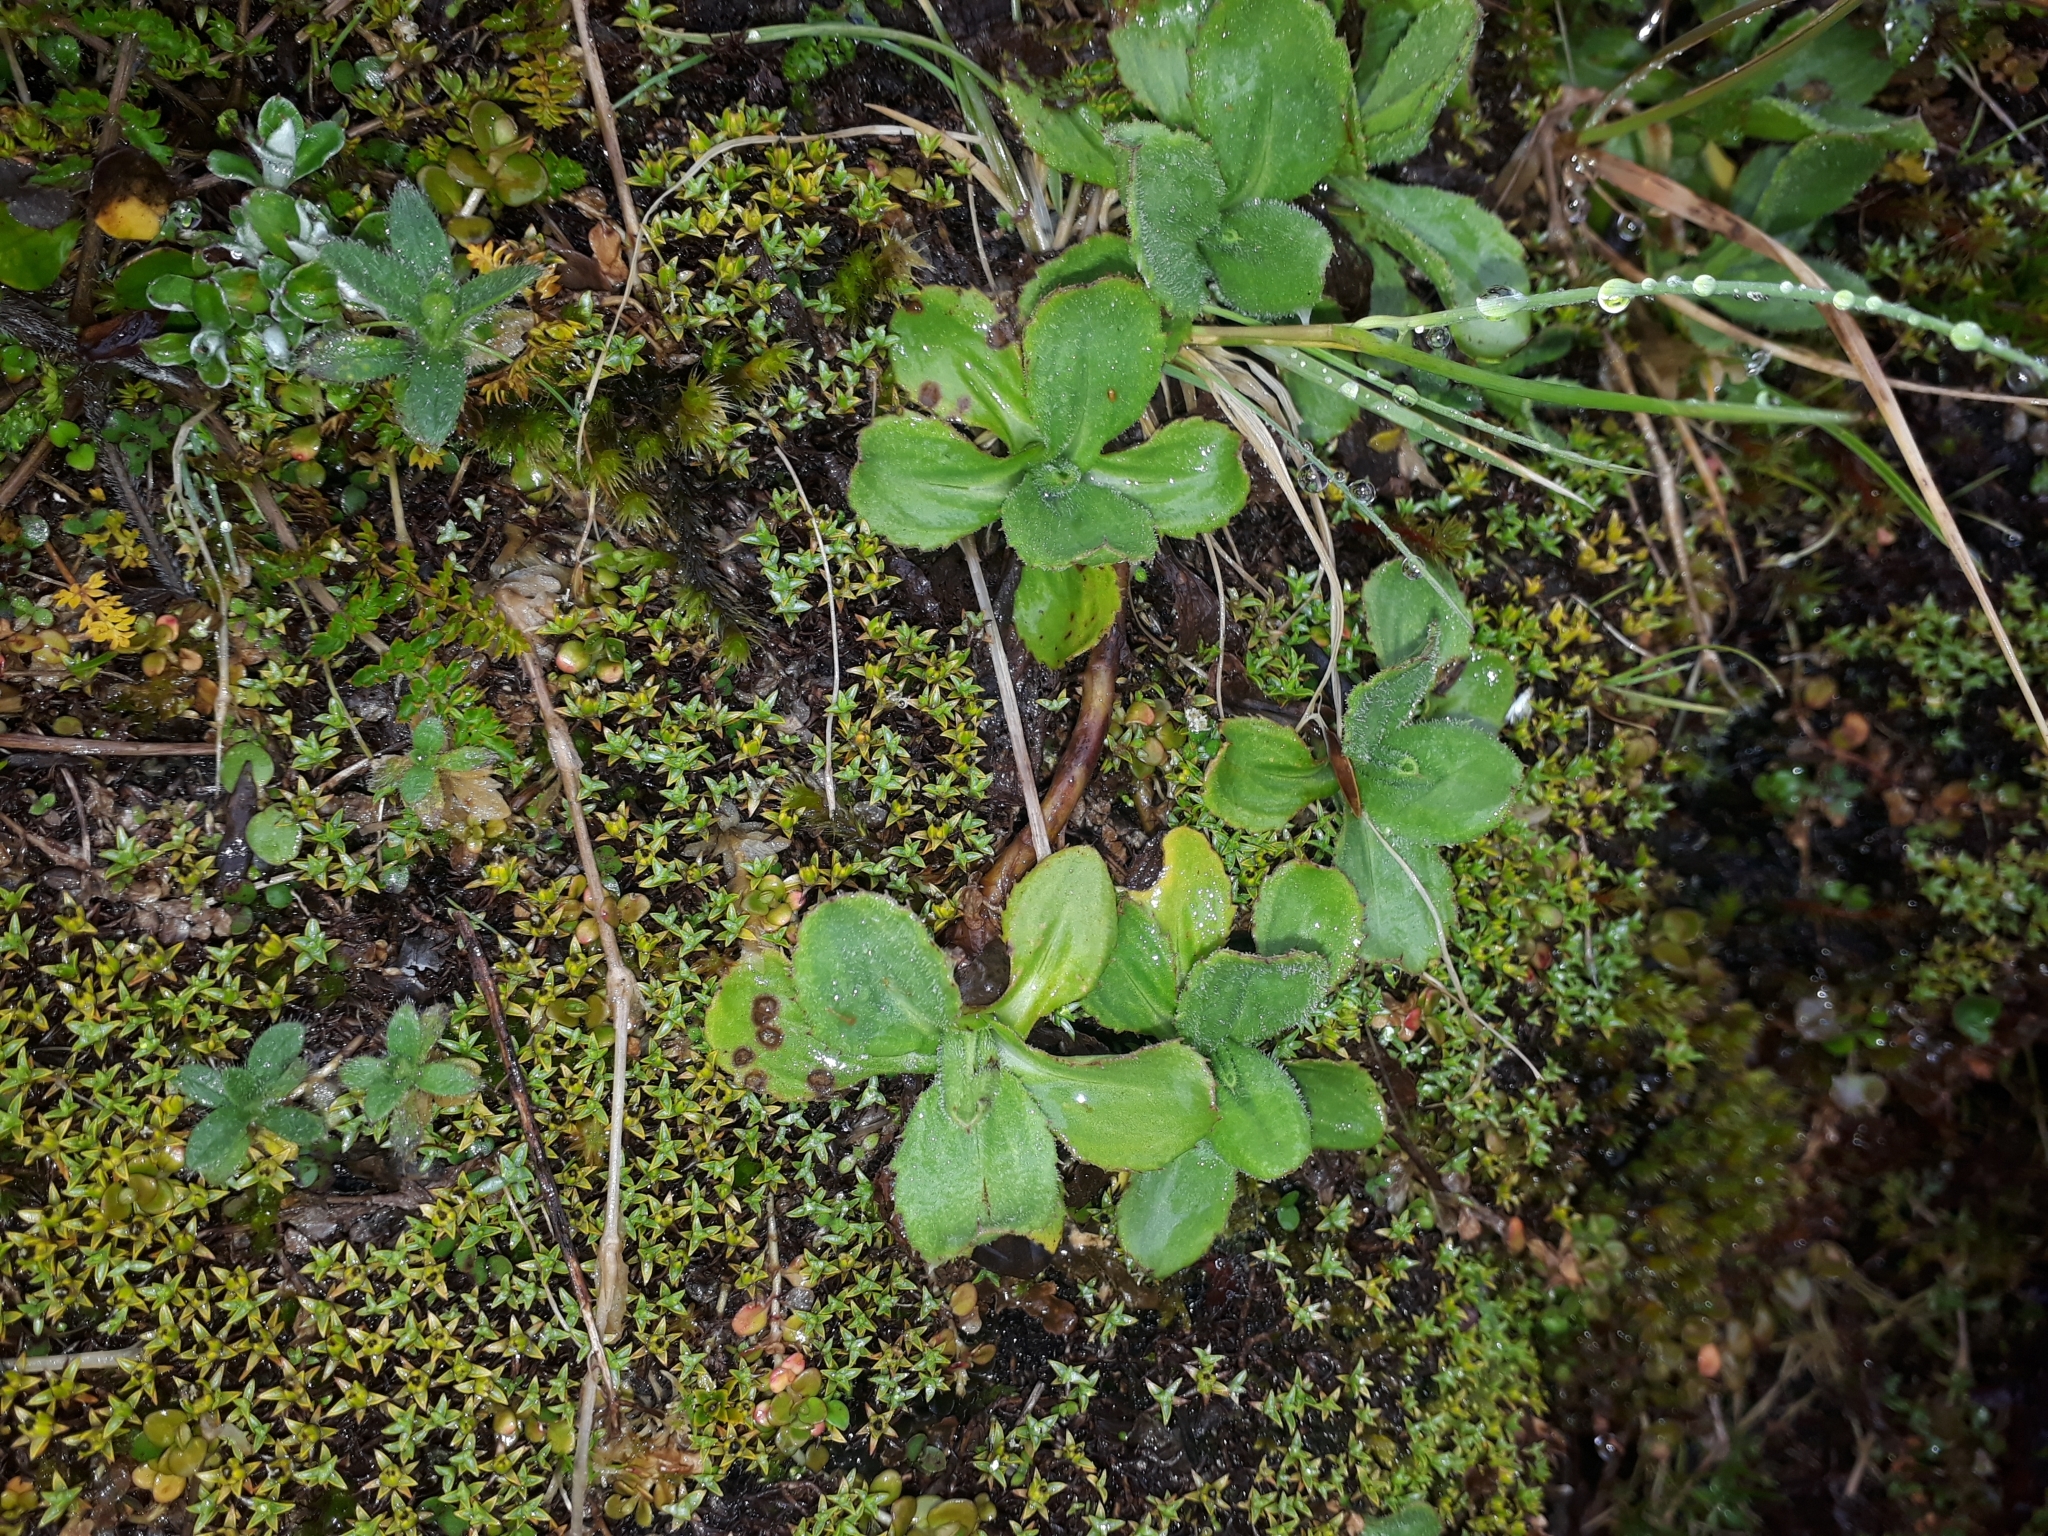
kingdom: Plantae
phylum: Tracheophyta
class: Magnoliopsida
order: Asterales
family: Asteraceae
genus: Celmisia
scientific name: Celmisia glandulosa
